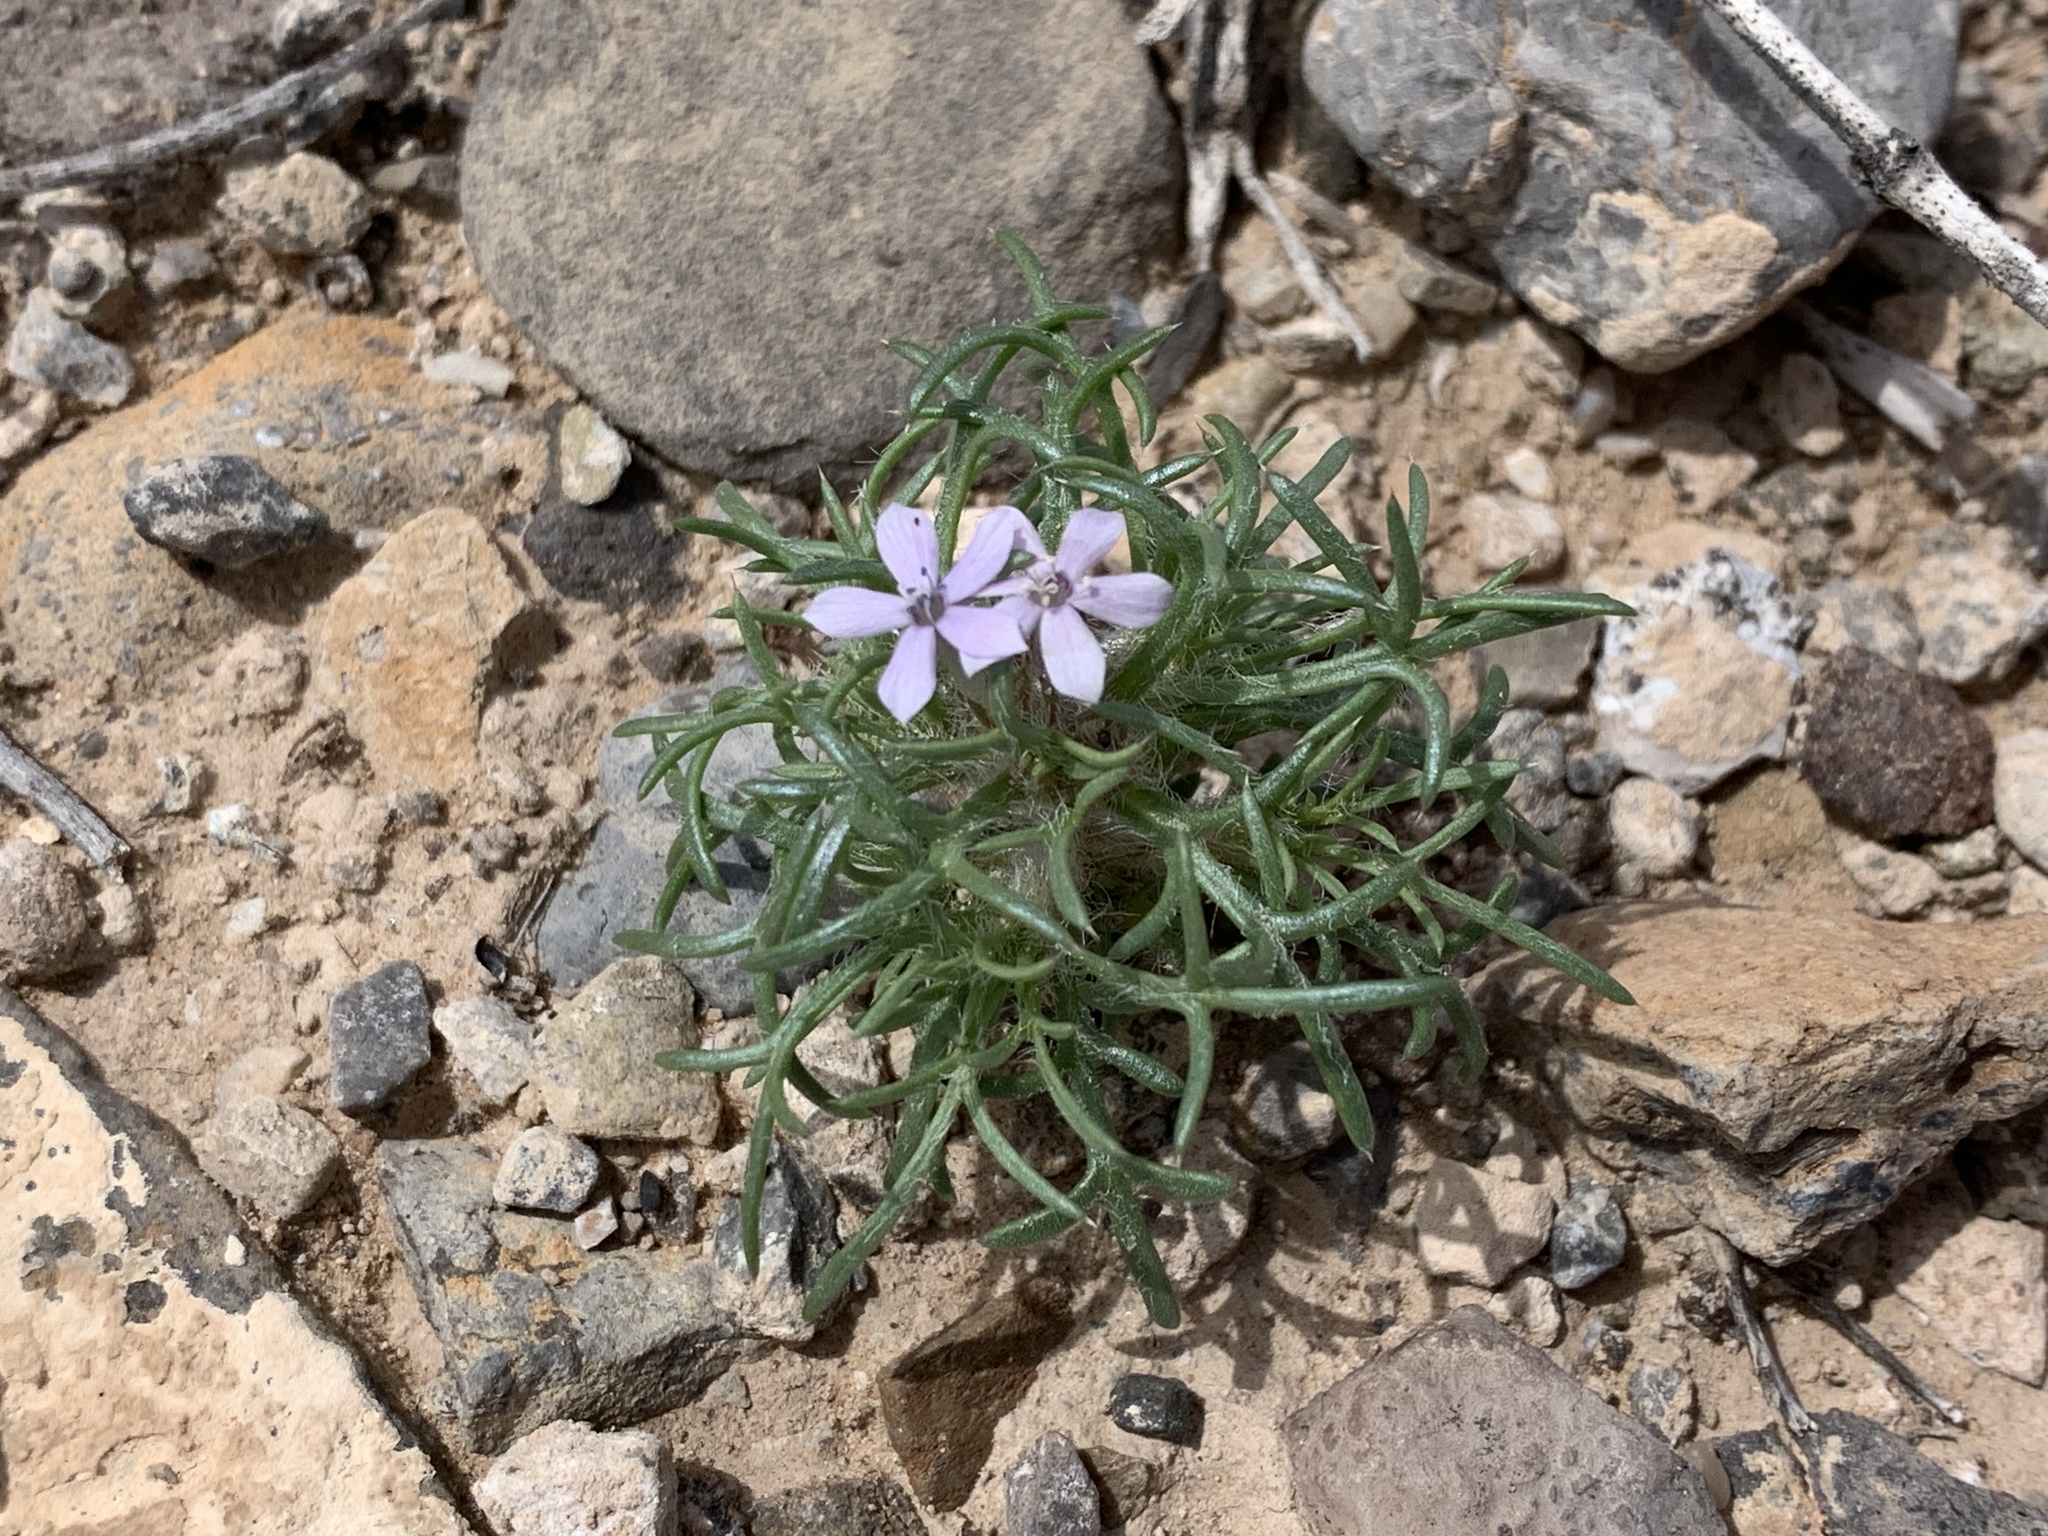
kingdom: Plantae
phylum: Tracheophyta
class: Magnoliopsida
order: Ericales
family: Polemoniaceae
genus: Ipomopsis
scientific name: Ipomopsis pumila
